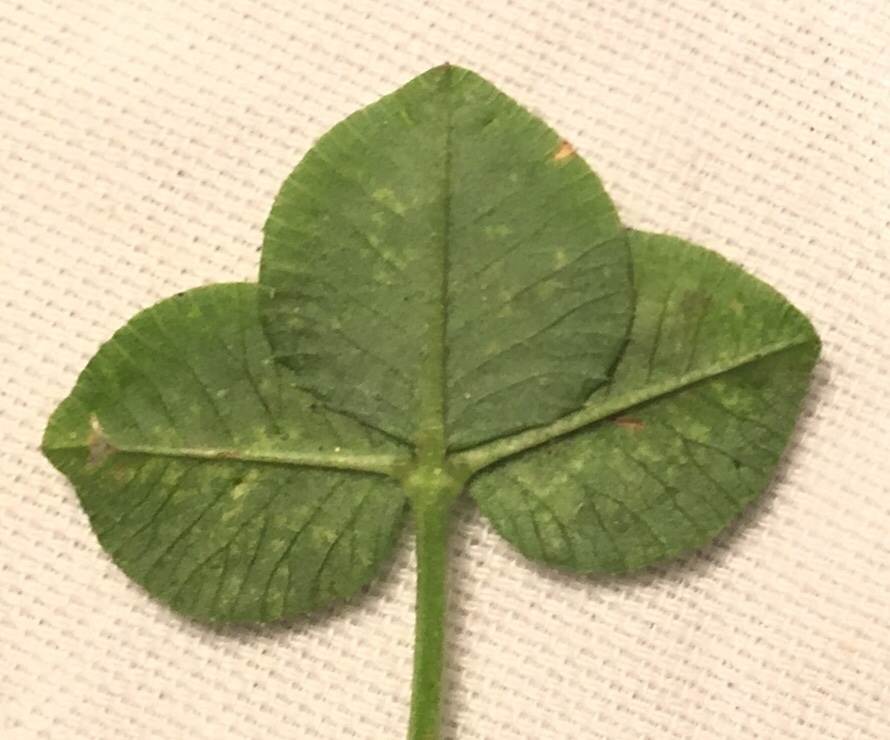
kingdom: Animalia
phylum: Arthropoda
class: Insecta
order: Lepidoptera
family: Gracillariidae
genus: Porphyrosela
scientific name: Porphyrosela minuta
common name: Leaf miner moth
